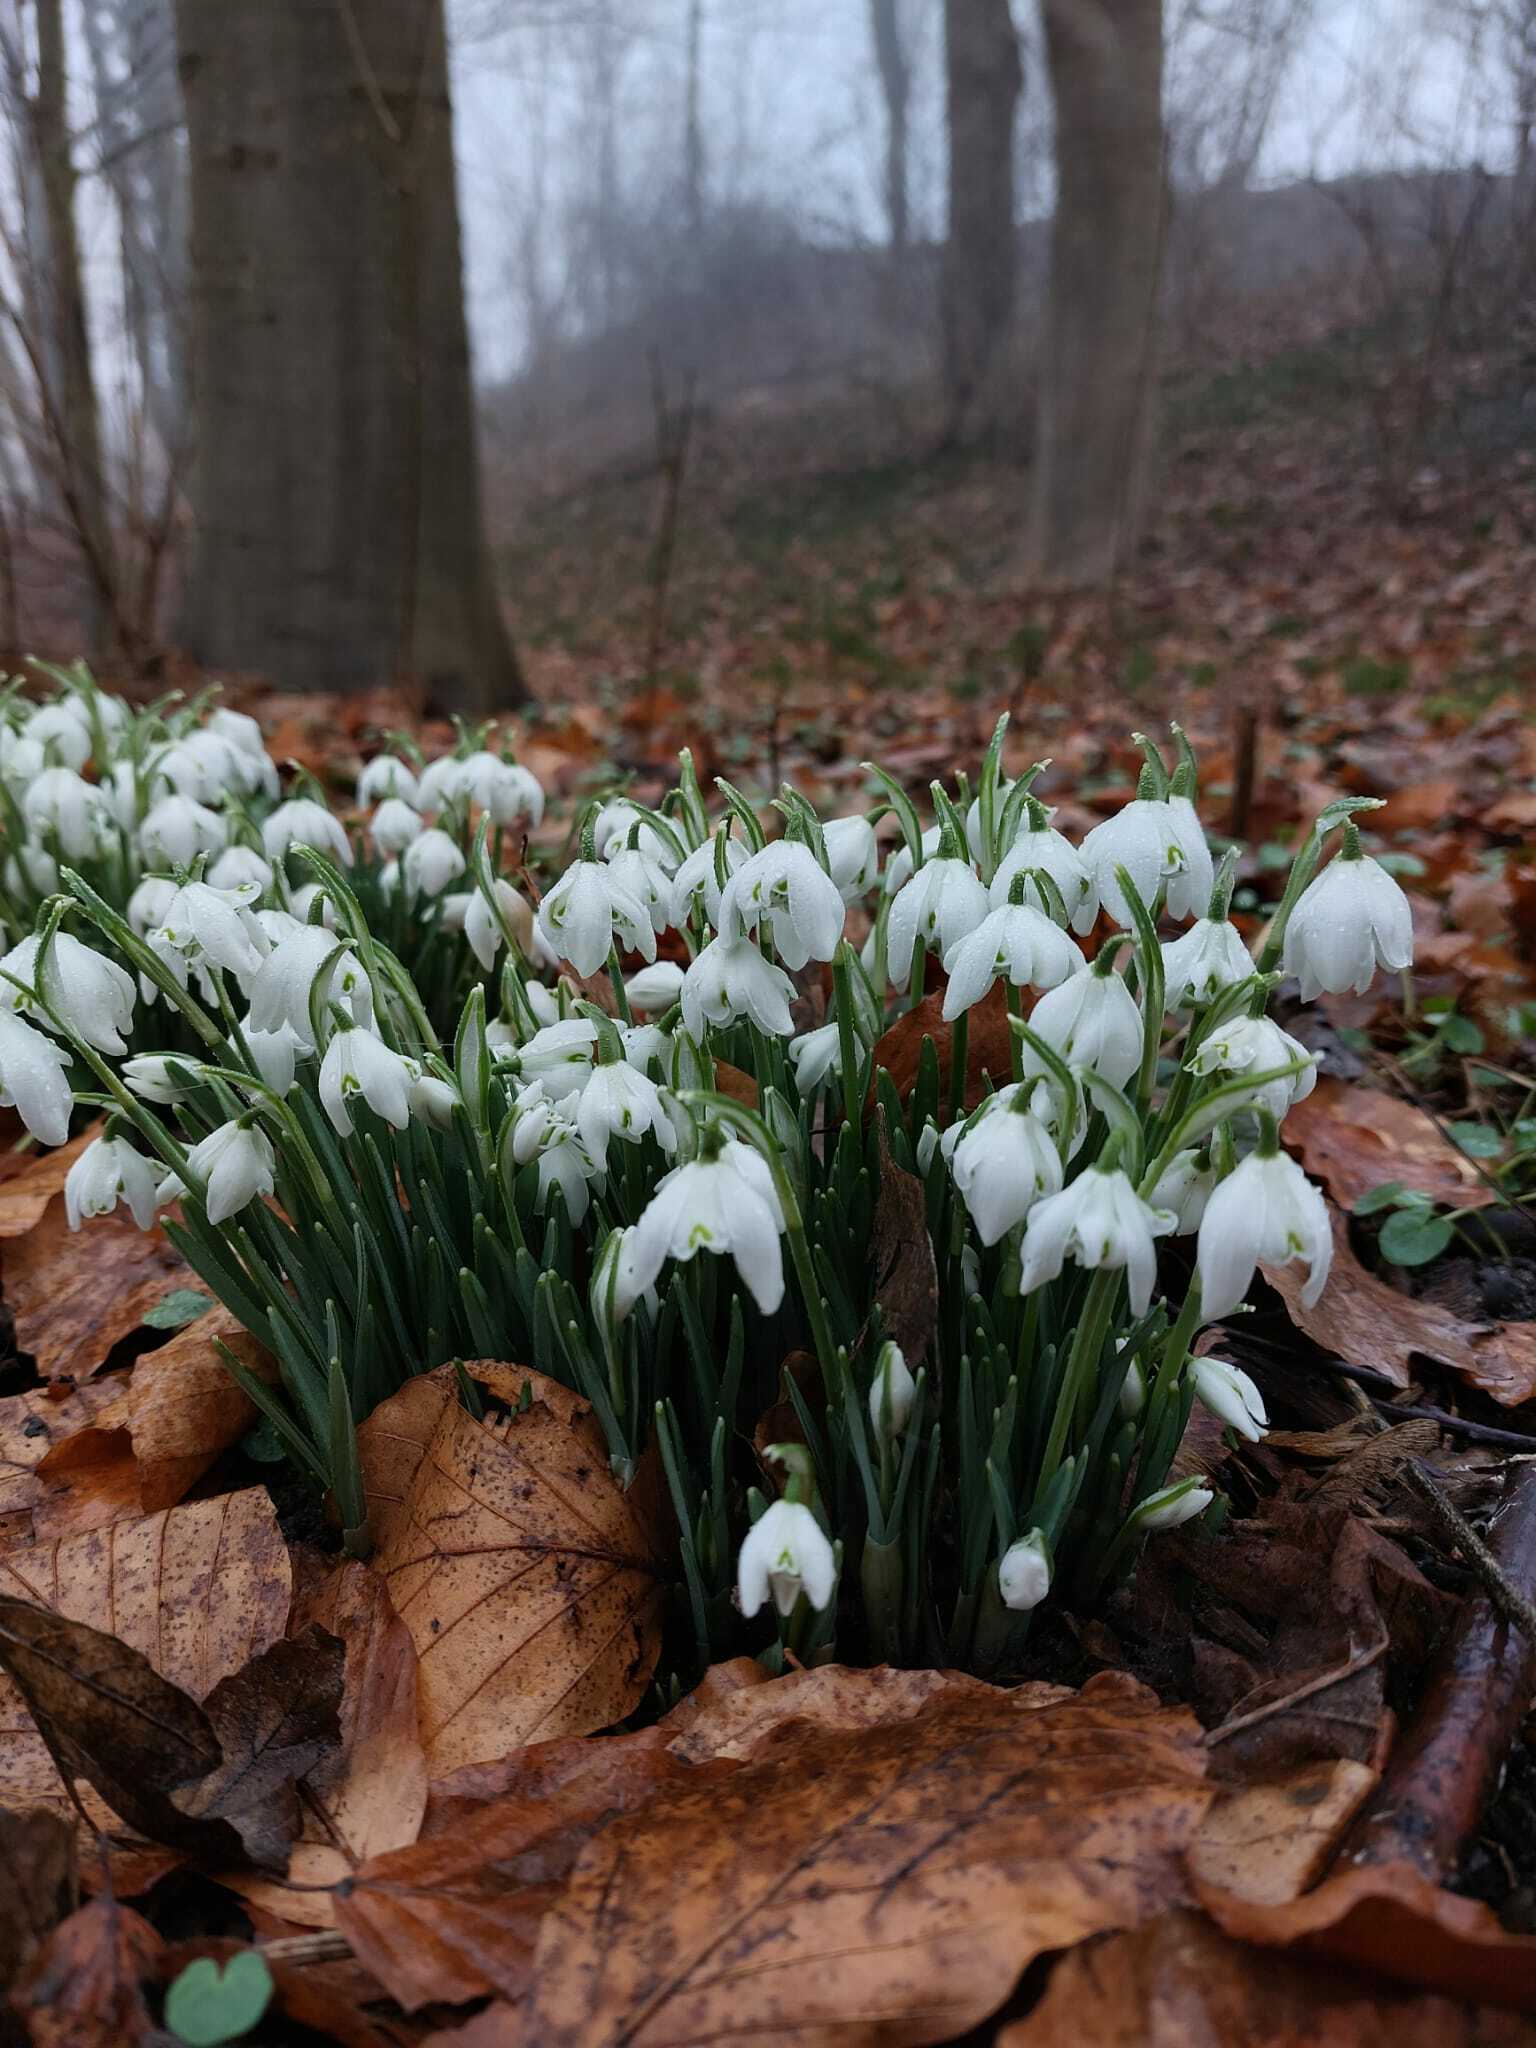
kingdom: Plantae
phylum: Tracheophyta
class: Liliopsida
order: Asparagales
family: Amaryllidaceae
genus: Galanthus
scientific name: Galanthus nivalis
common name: Snowdrop
